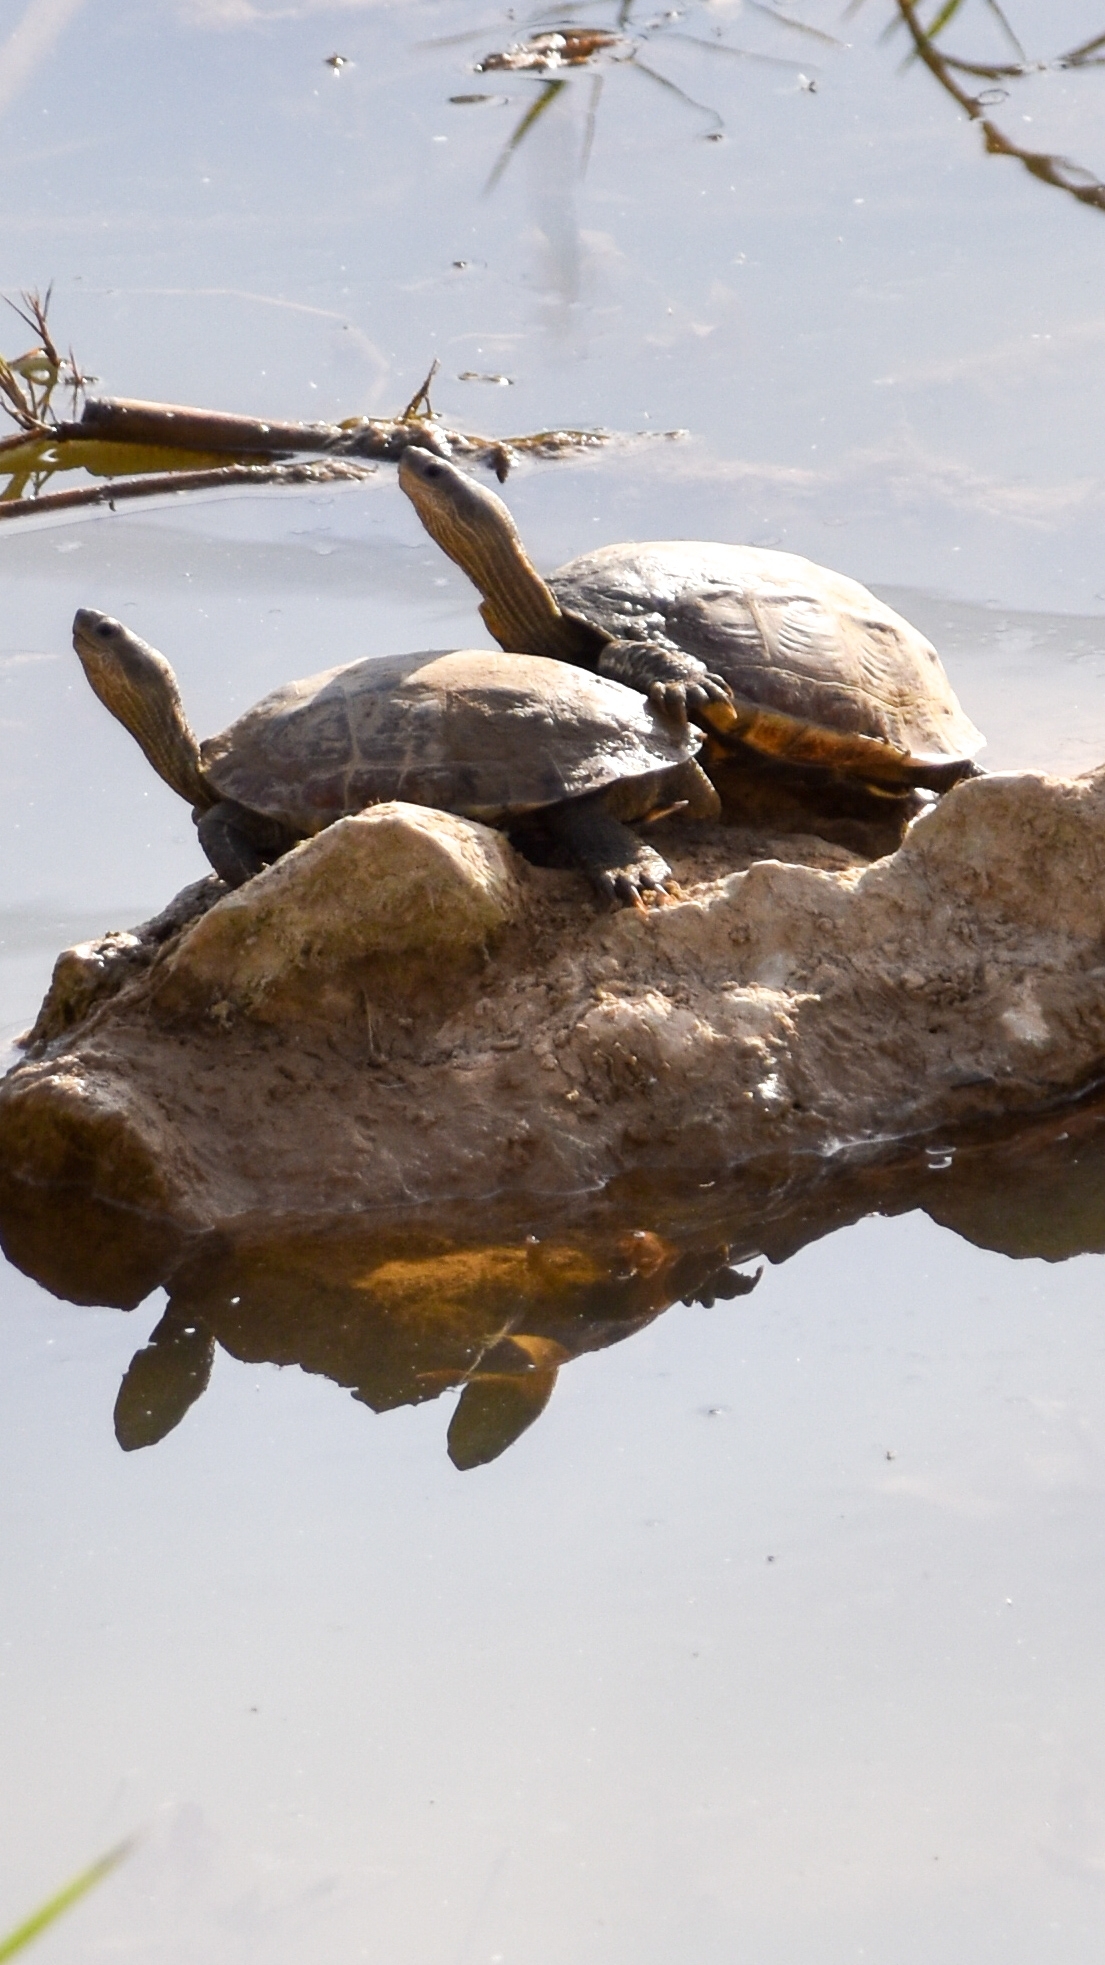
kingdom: Animalia
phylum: Chordata
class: Testudines
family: Geoemydidae
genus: Mauremys
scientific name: Mauremys rivulata
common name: Western caspian turtle
